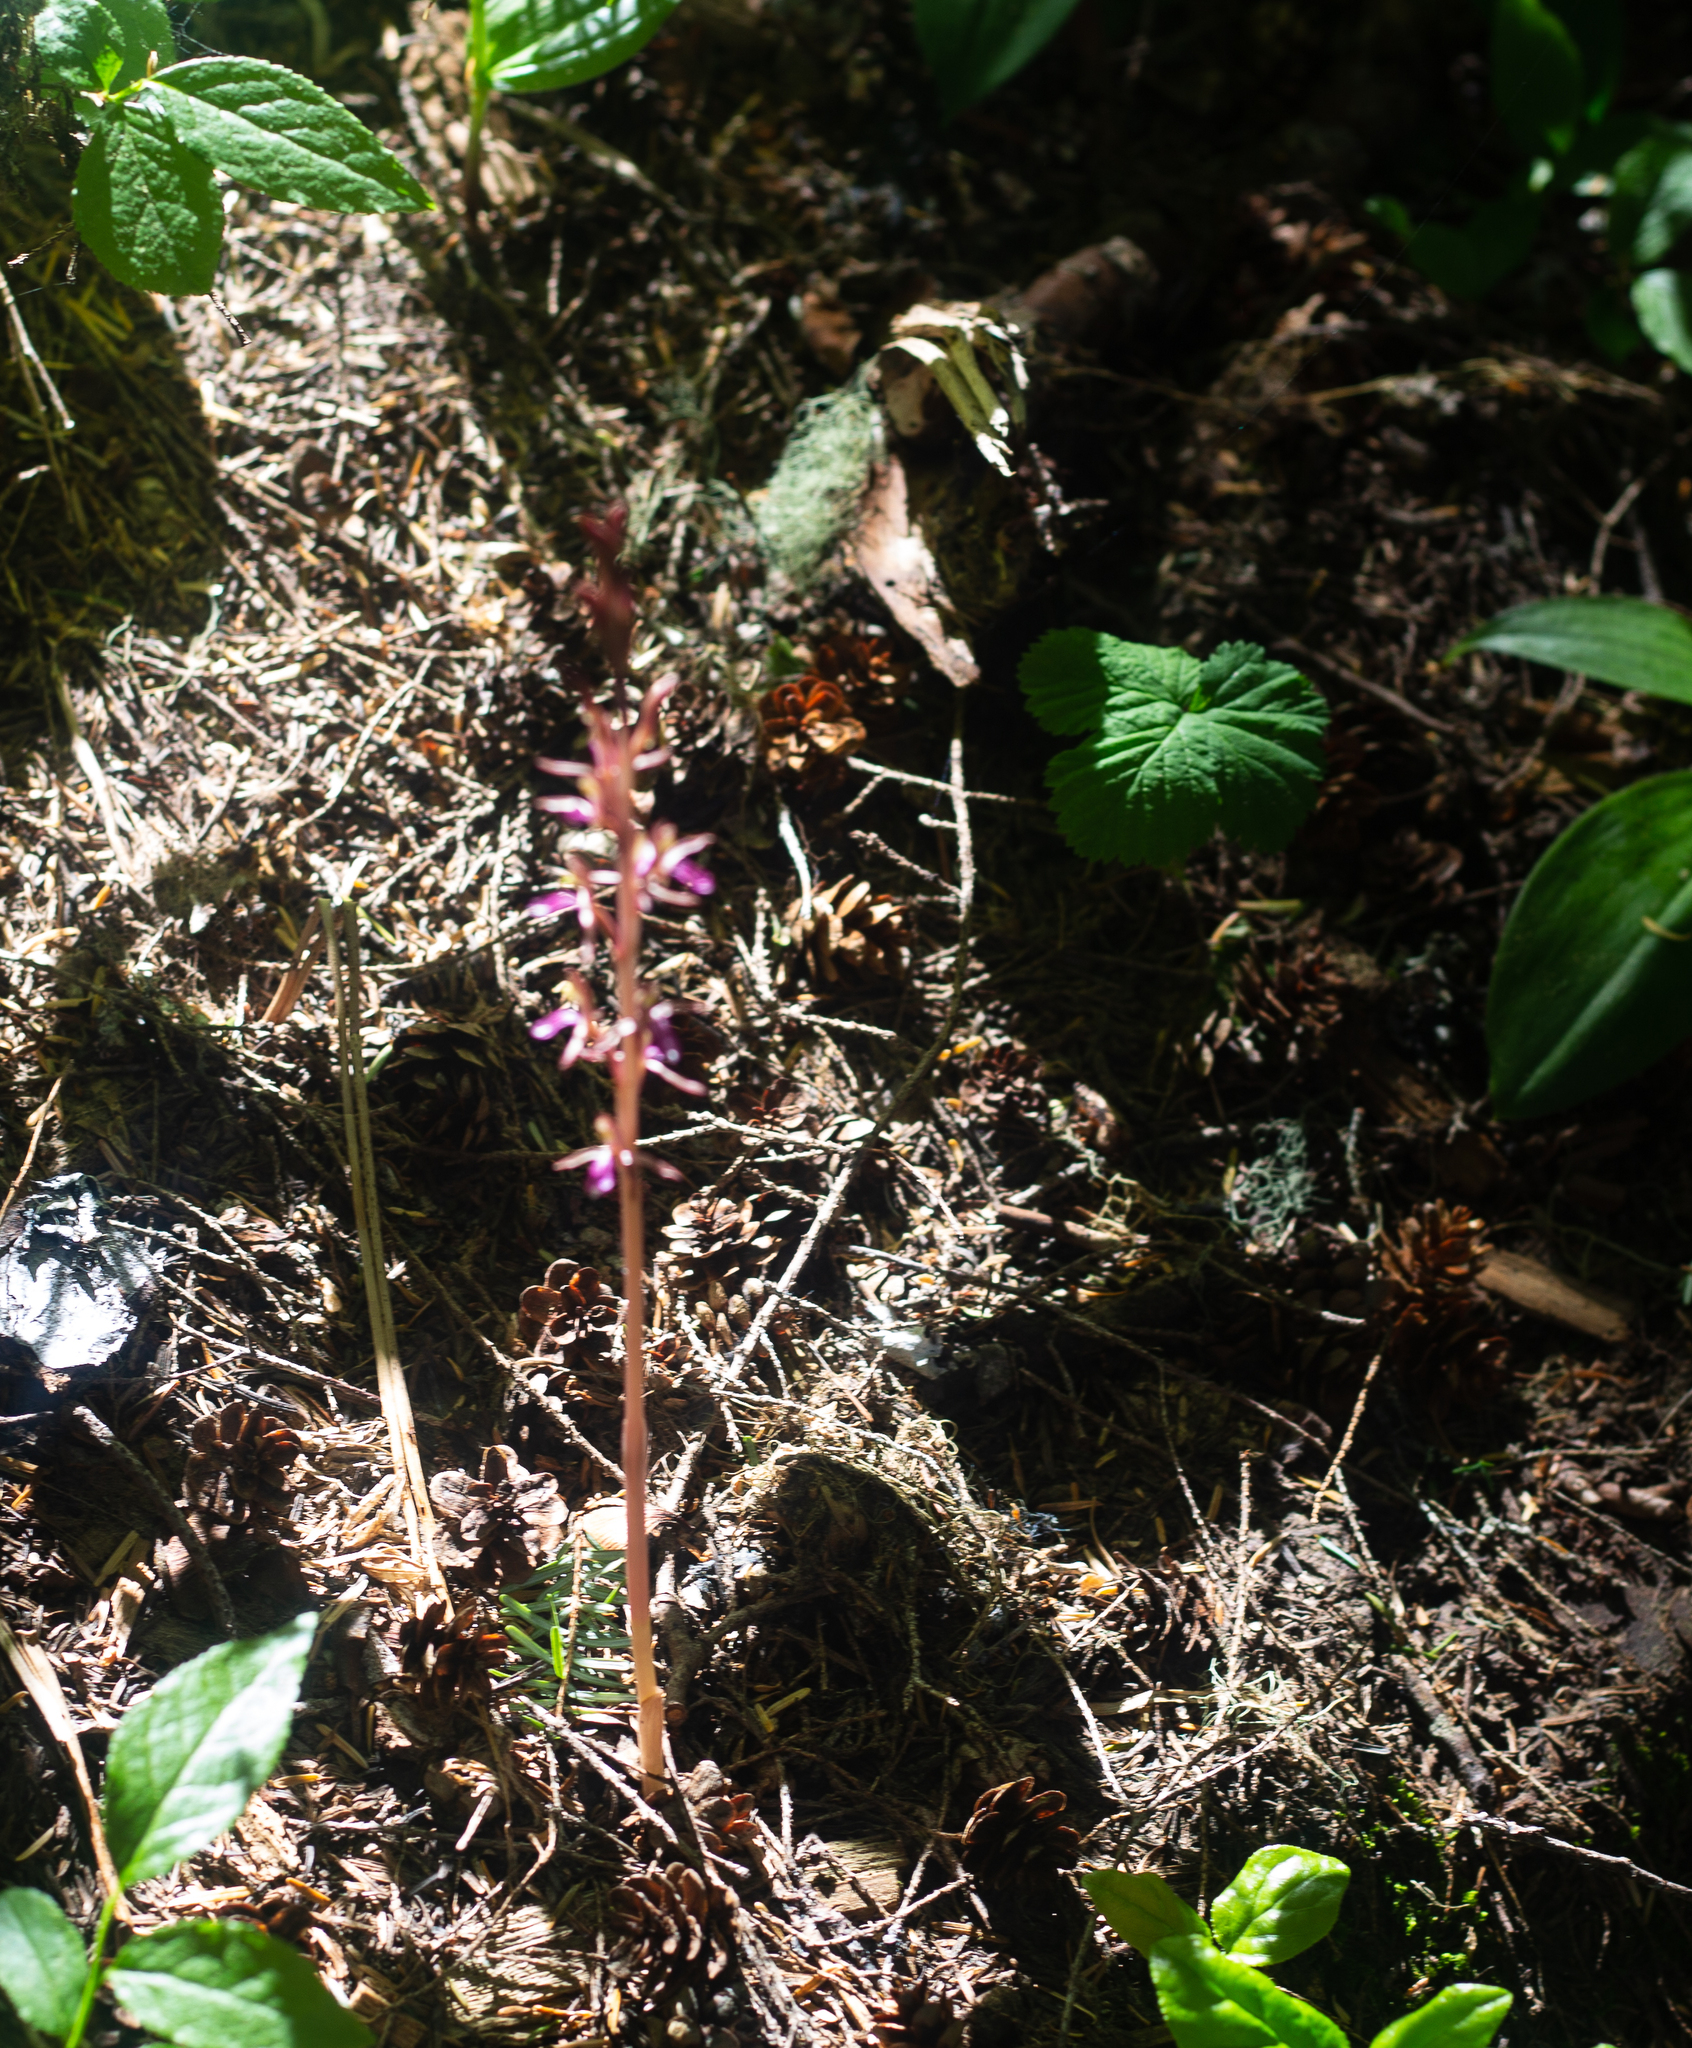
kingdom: Plantae
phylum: Tracheophyta
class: Liliopsida
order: Asparagales
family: Orchidaceae
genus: Corallorhiza
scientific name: Corallorhiza mertensiana
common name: Pacific coralroot
